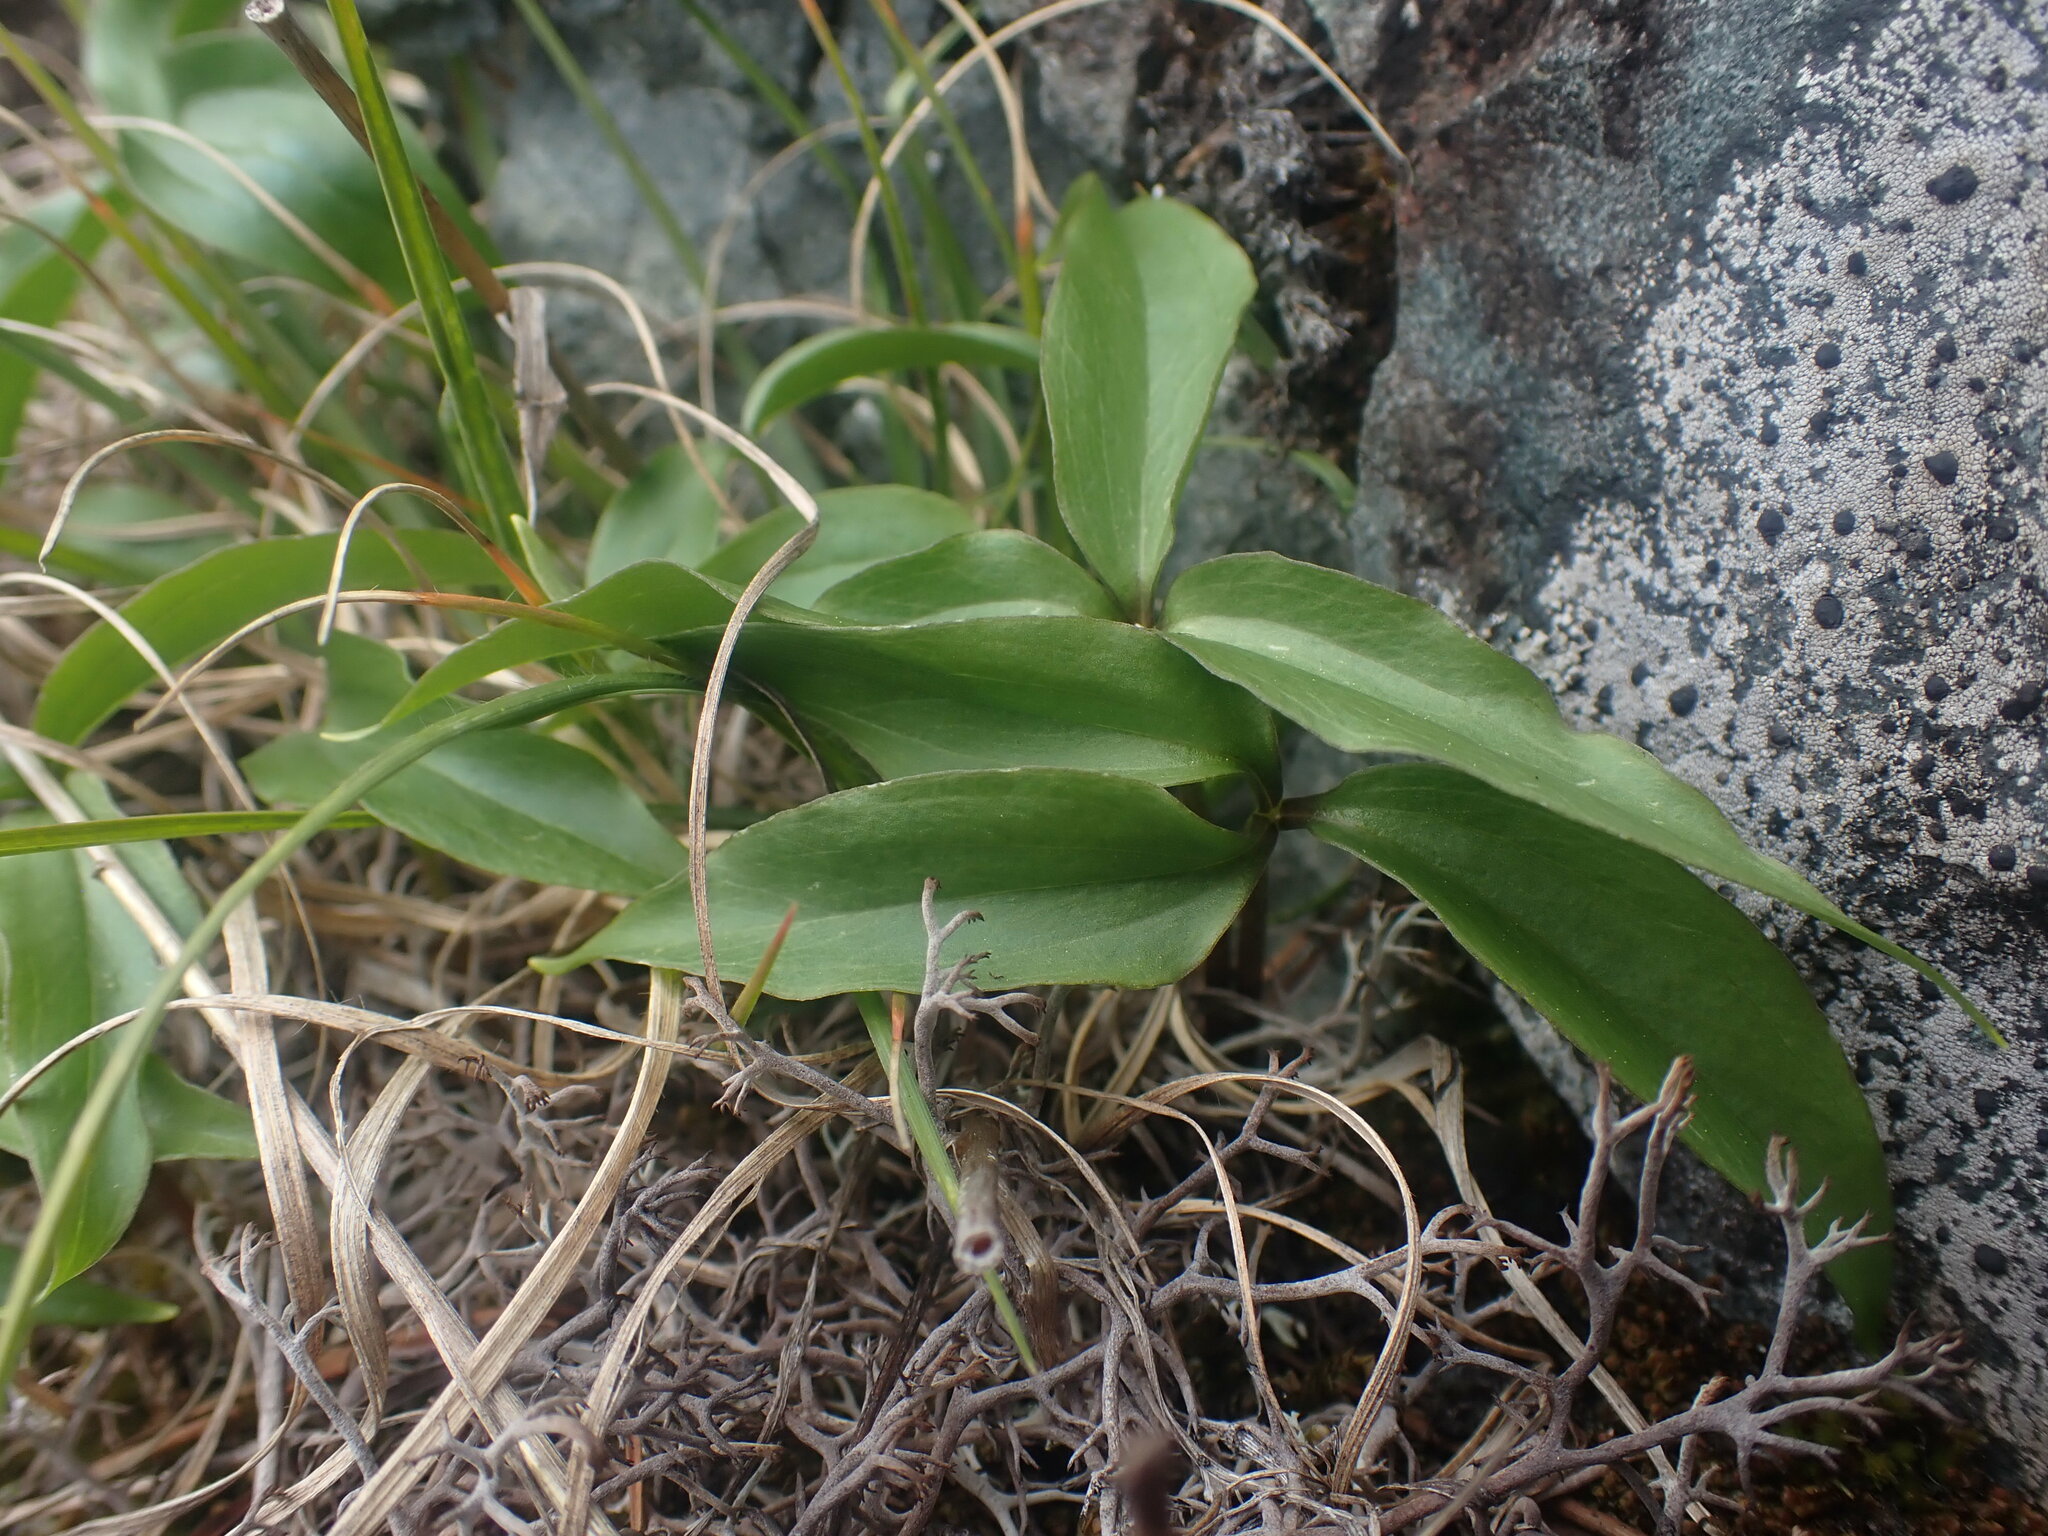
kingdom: Plantae
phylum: Tracheophyta
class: Liliopsida
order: Liliales
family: Melanthiaceae
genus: Trillium
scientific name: Trillium hibbersonii
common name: Hibberson's trillium
